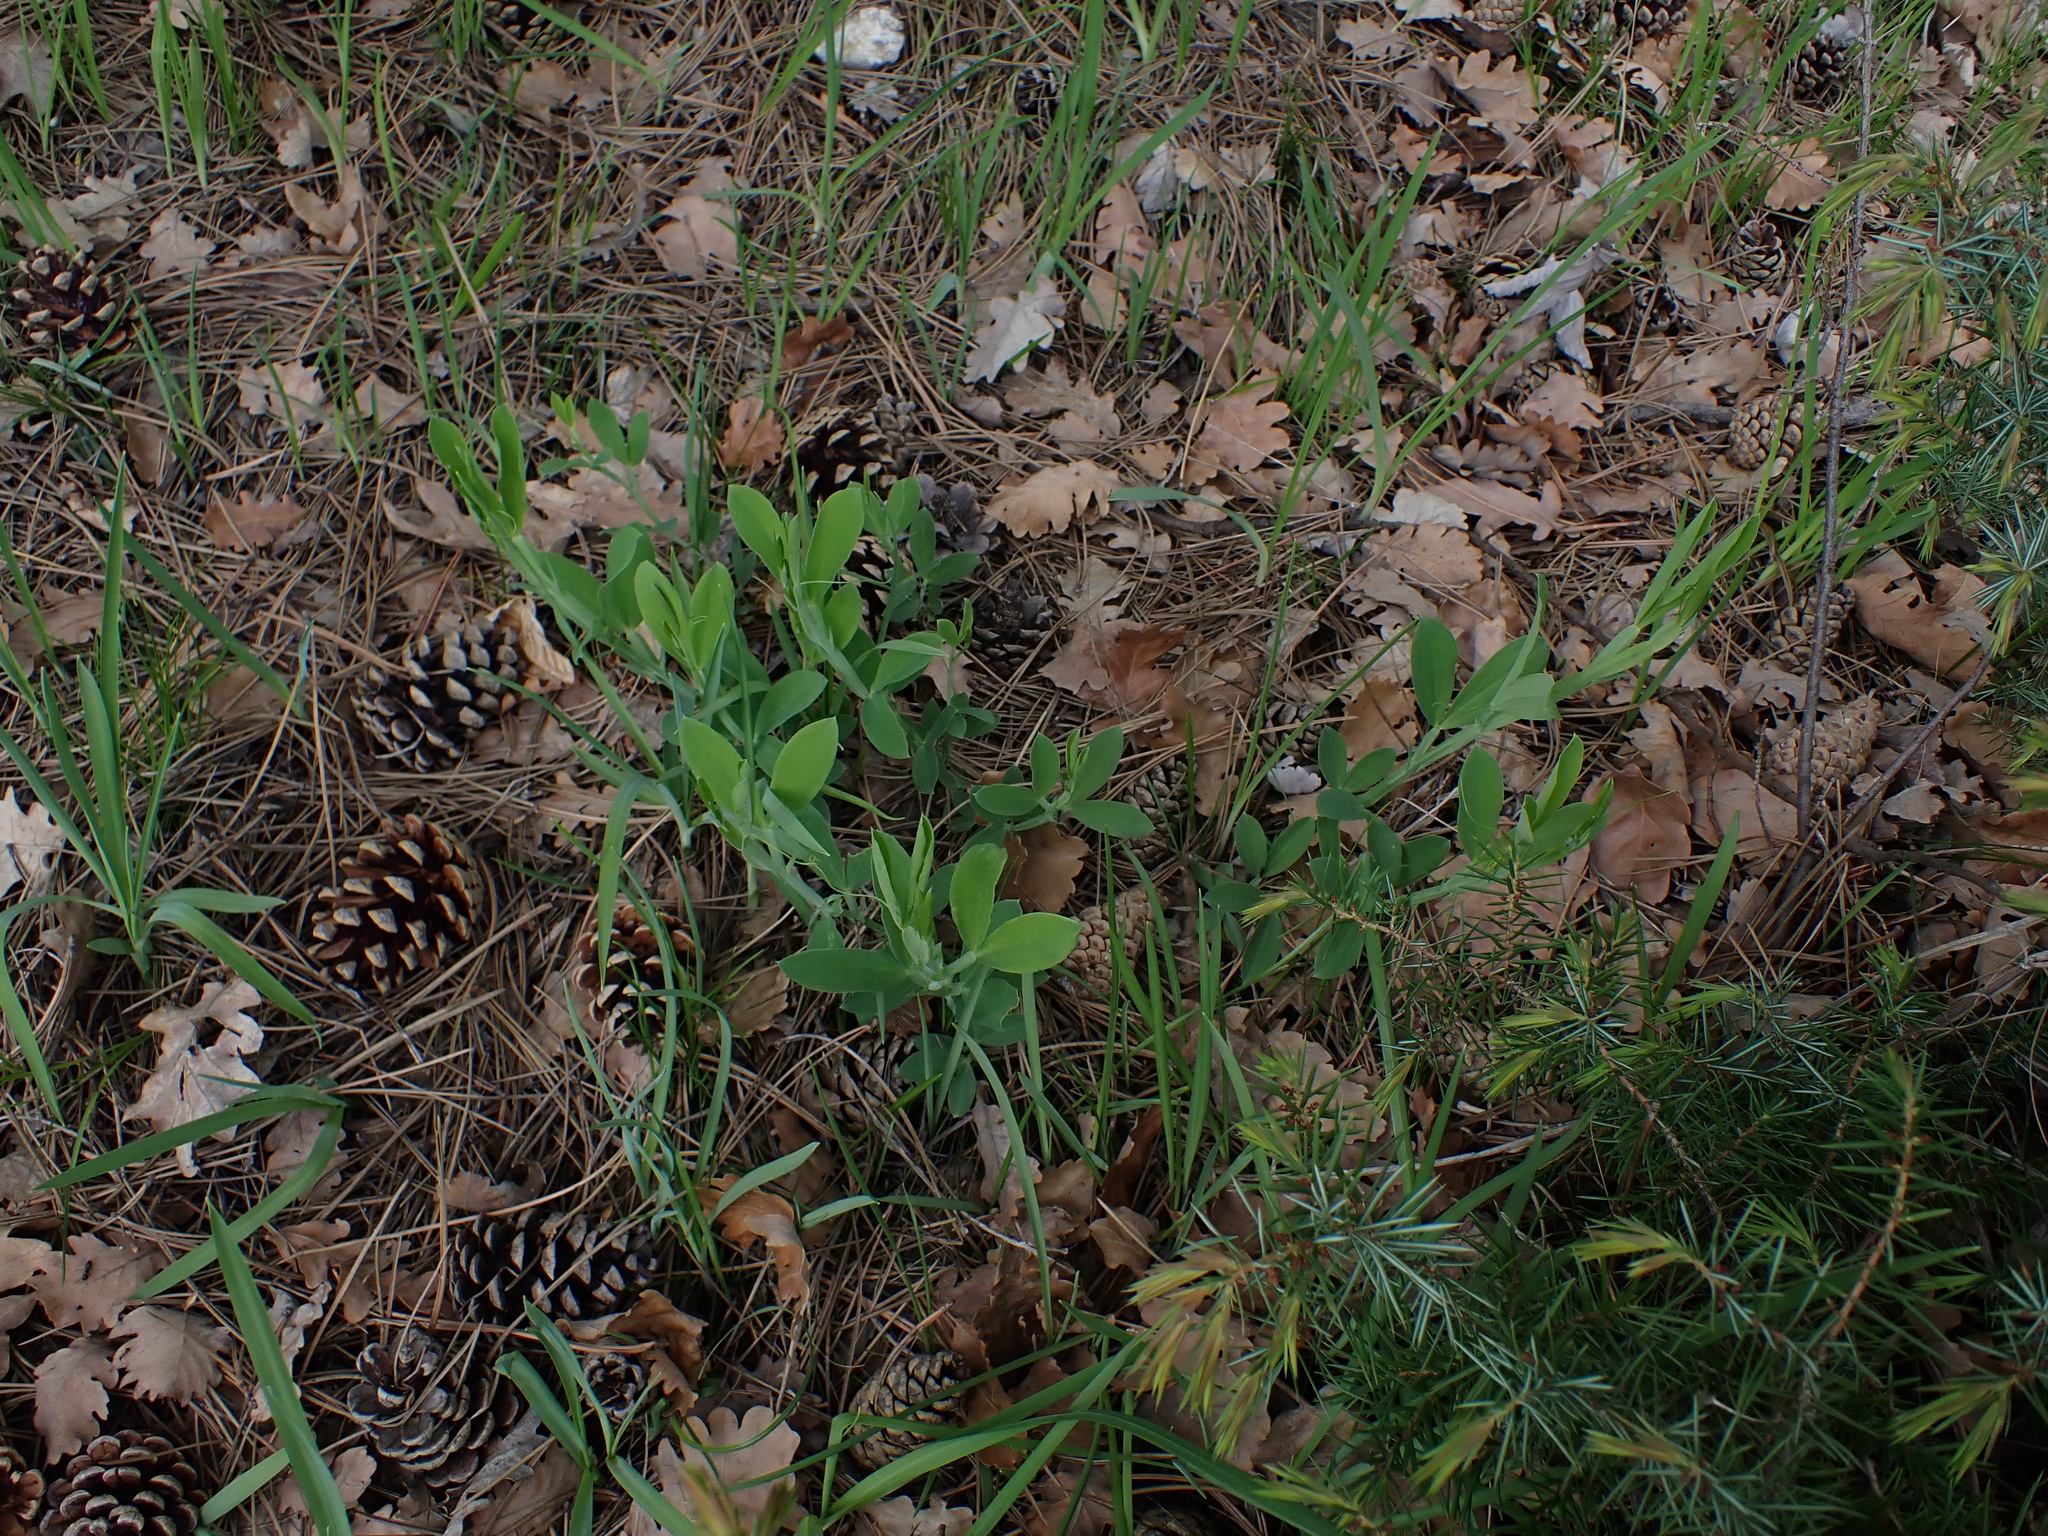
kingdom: Plantae
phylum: Tracheophyta
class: Magnoliopsida
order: Fabales
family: Fabaceae
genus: Lathyrus
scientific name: Lathyrus latifolius
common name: Perennial pea
